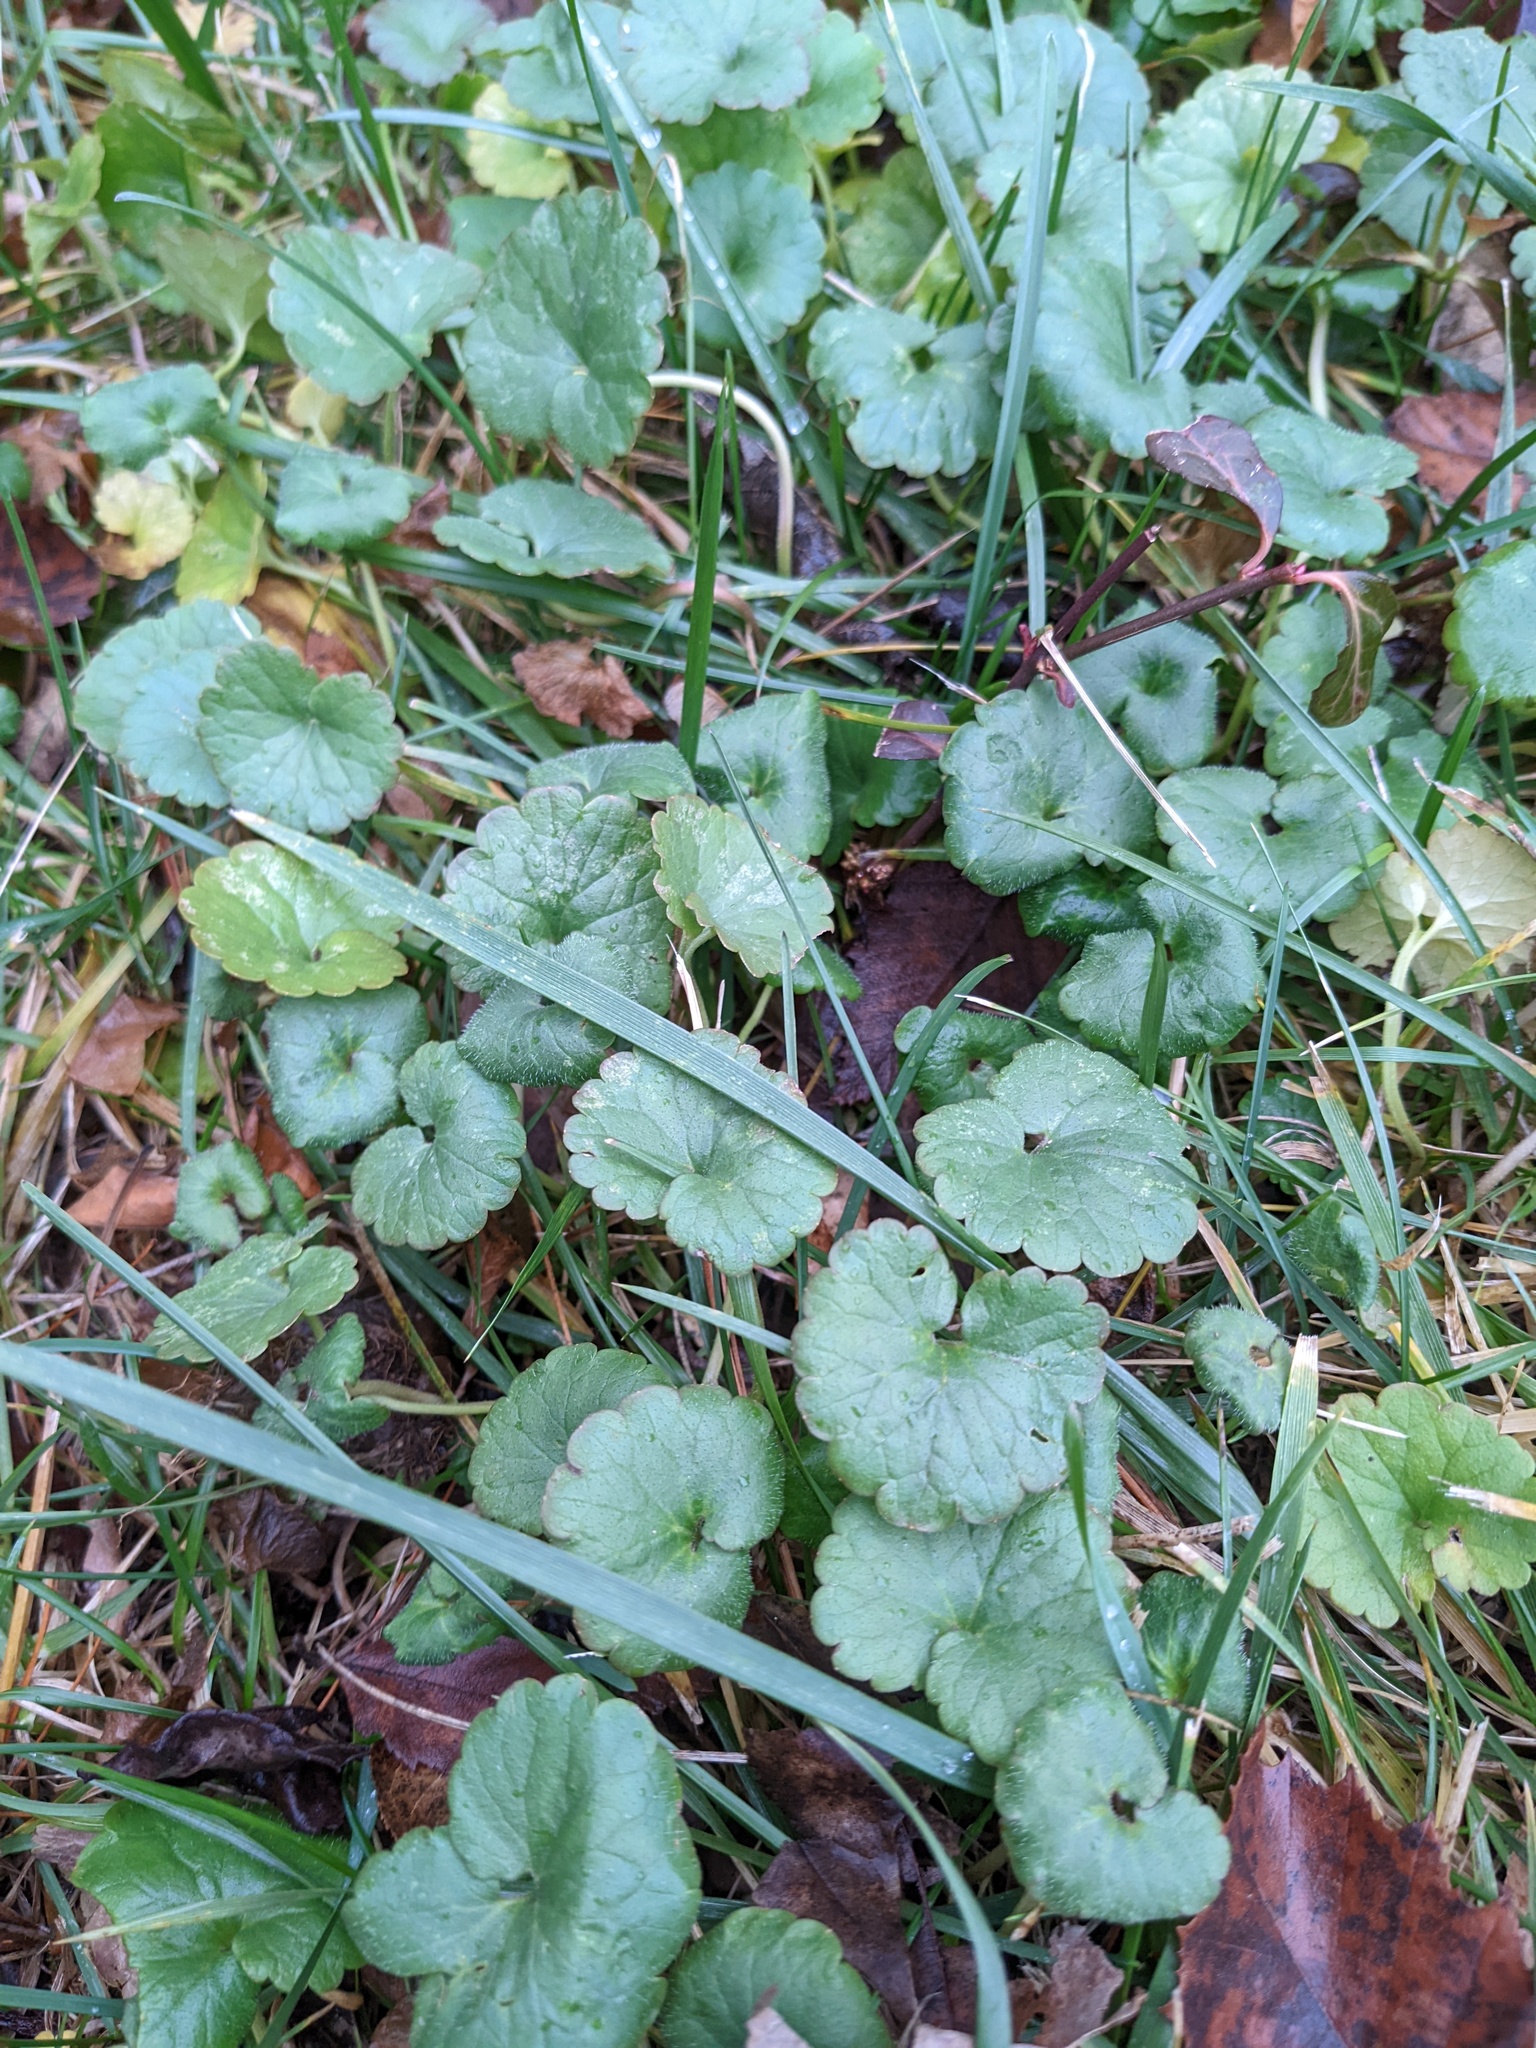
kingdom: Plantae
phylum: Tracheophyta
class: Magnoliopsida
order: Lamiales
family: Lamiaceae
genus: Glechoma
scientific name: Glechoma hederacea
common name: Ground ivy
